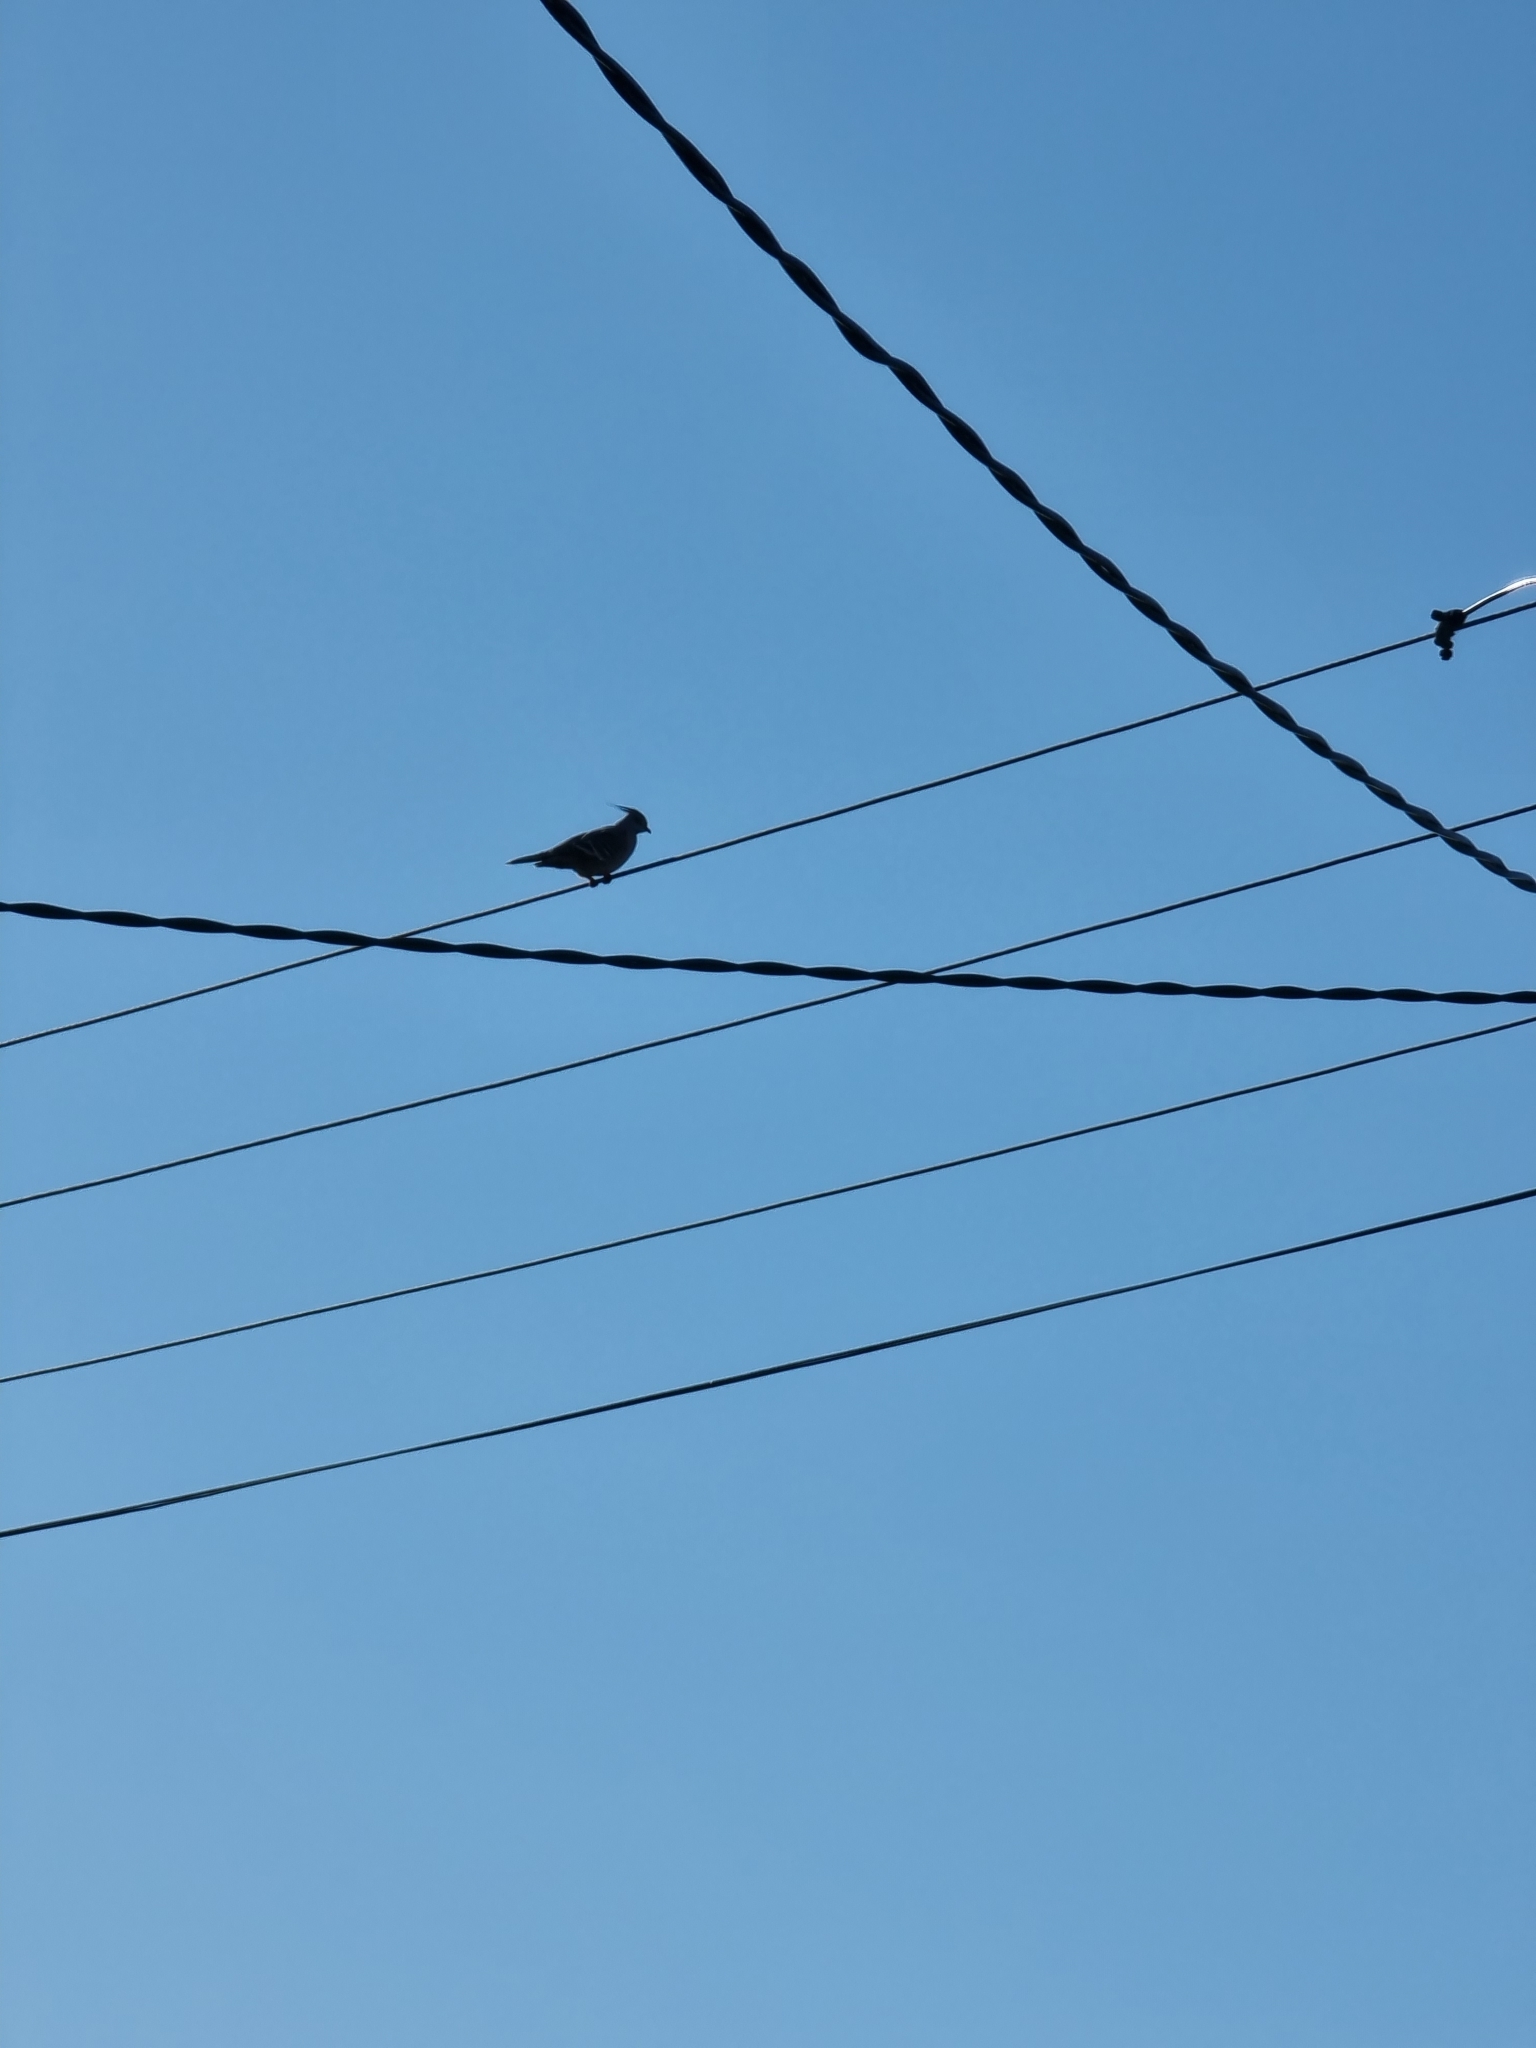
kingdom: Animalia
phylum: Chordata
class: Aves
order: Columbiformes
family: Columbidae
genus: Ocyphaps
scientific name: Ocyphaps lophotes
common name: Crested pigeon
